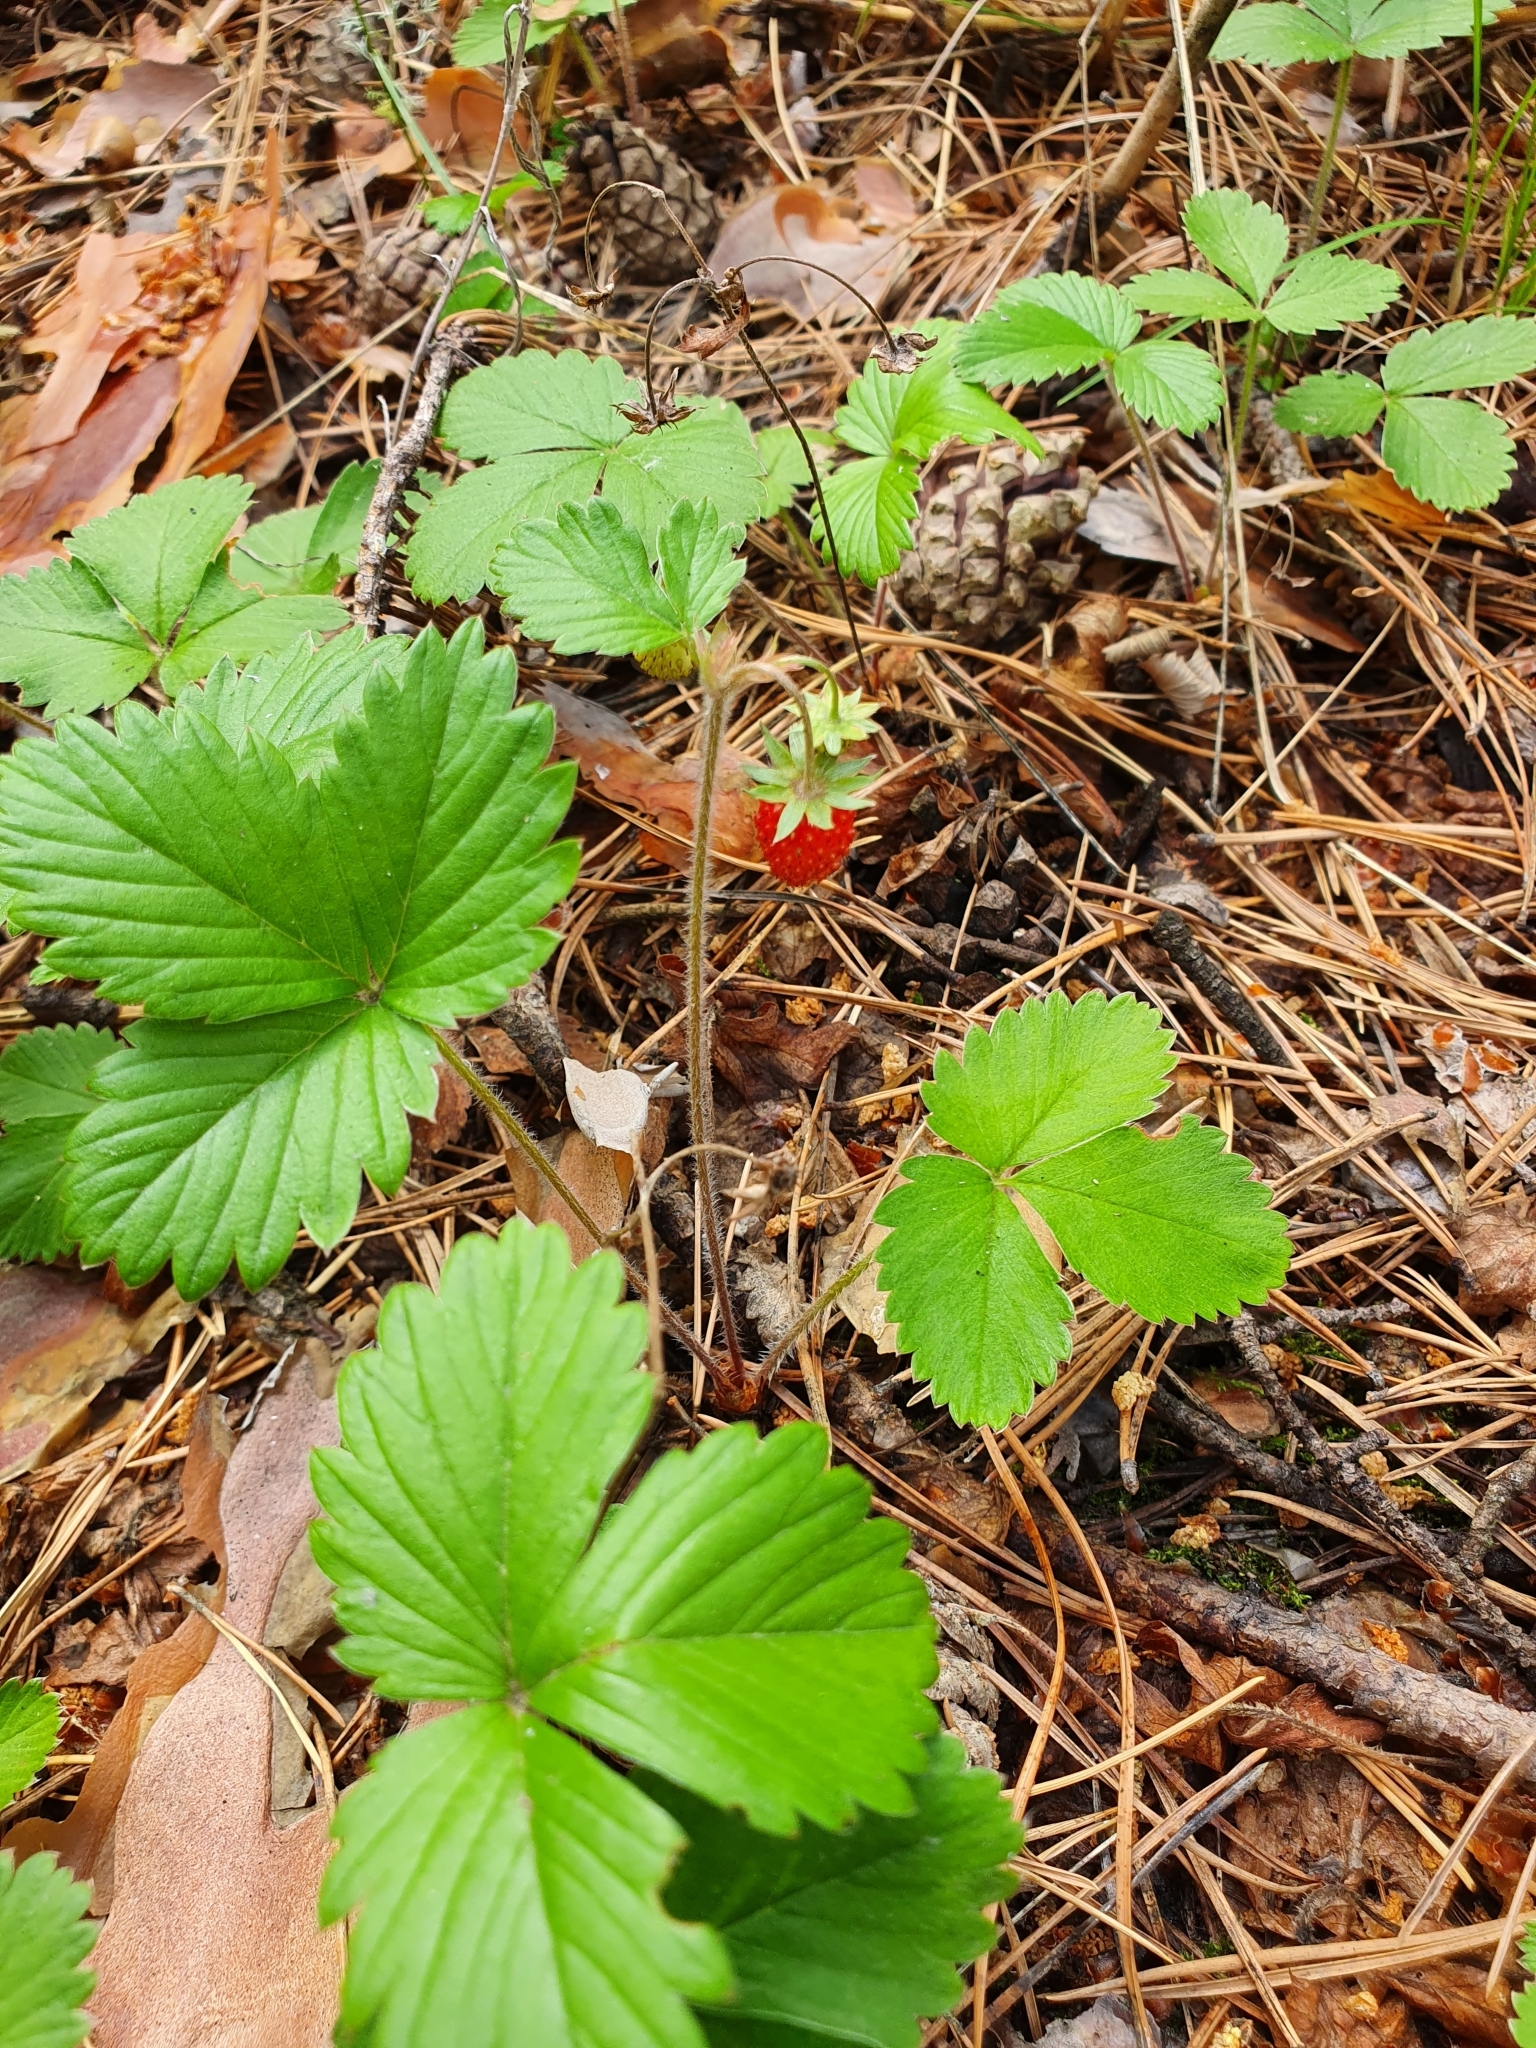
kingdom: Plantae
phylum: Tracheophyta
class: Magnoliopsida
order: Rosales
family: Rosaceae
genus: Fragaria
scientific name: Fragaria vesca
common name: Wild strawberry
